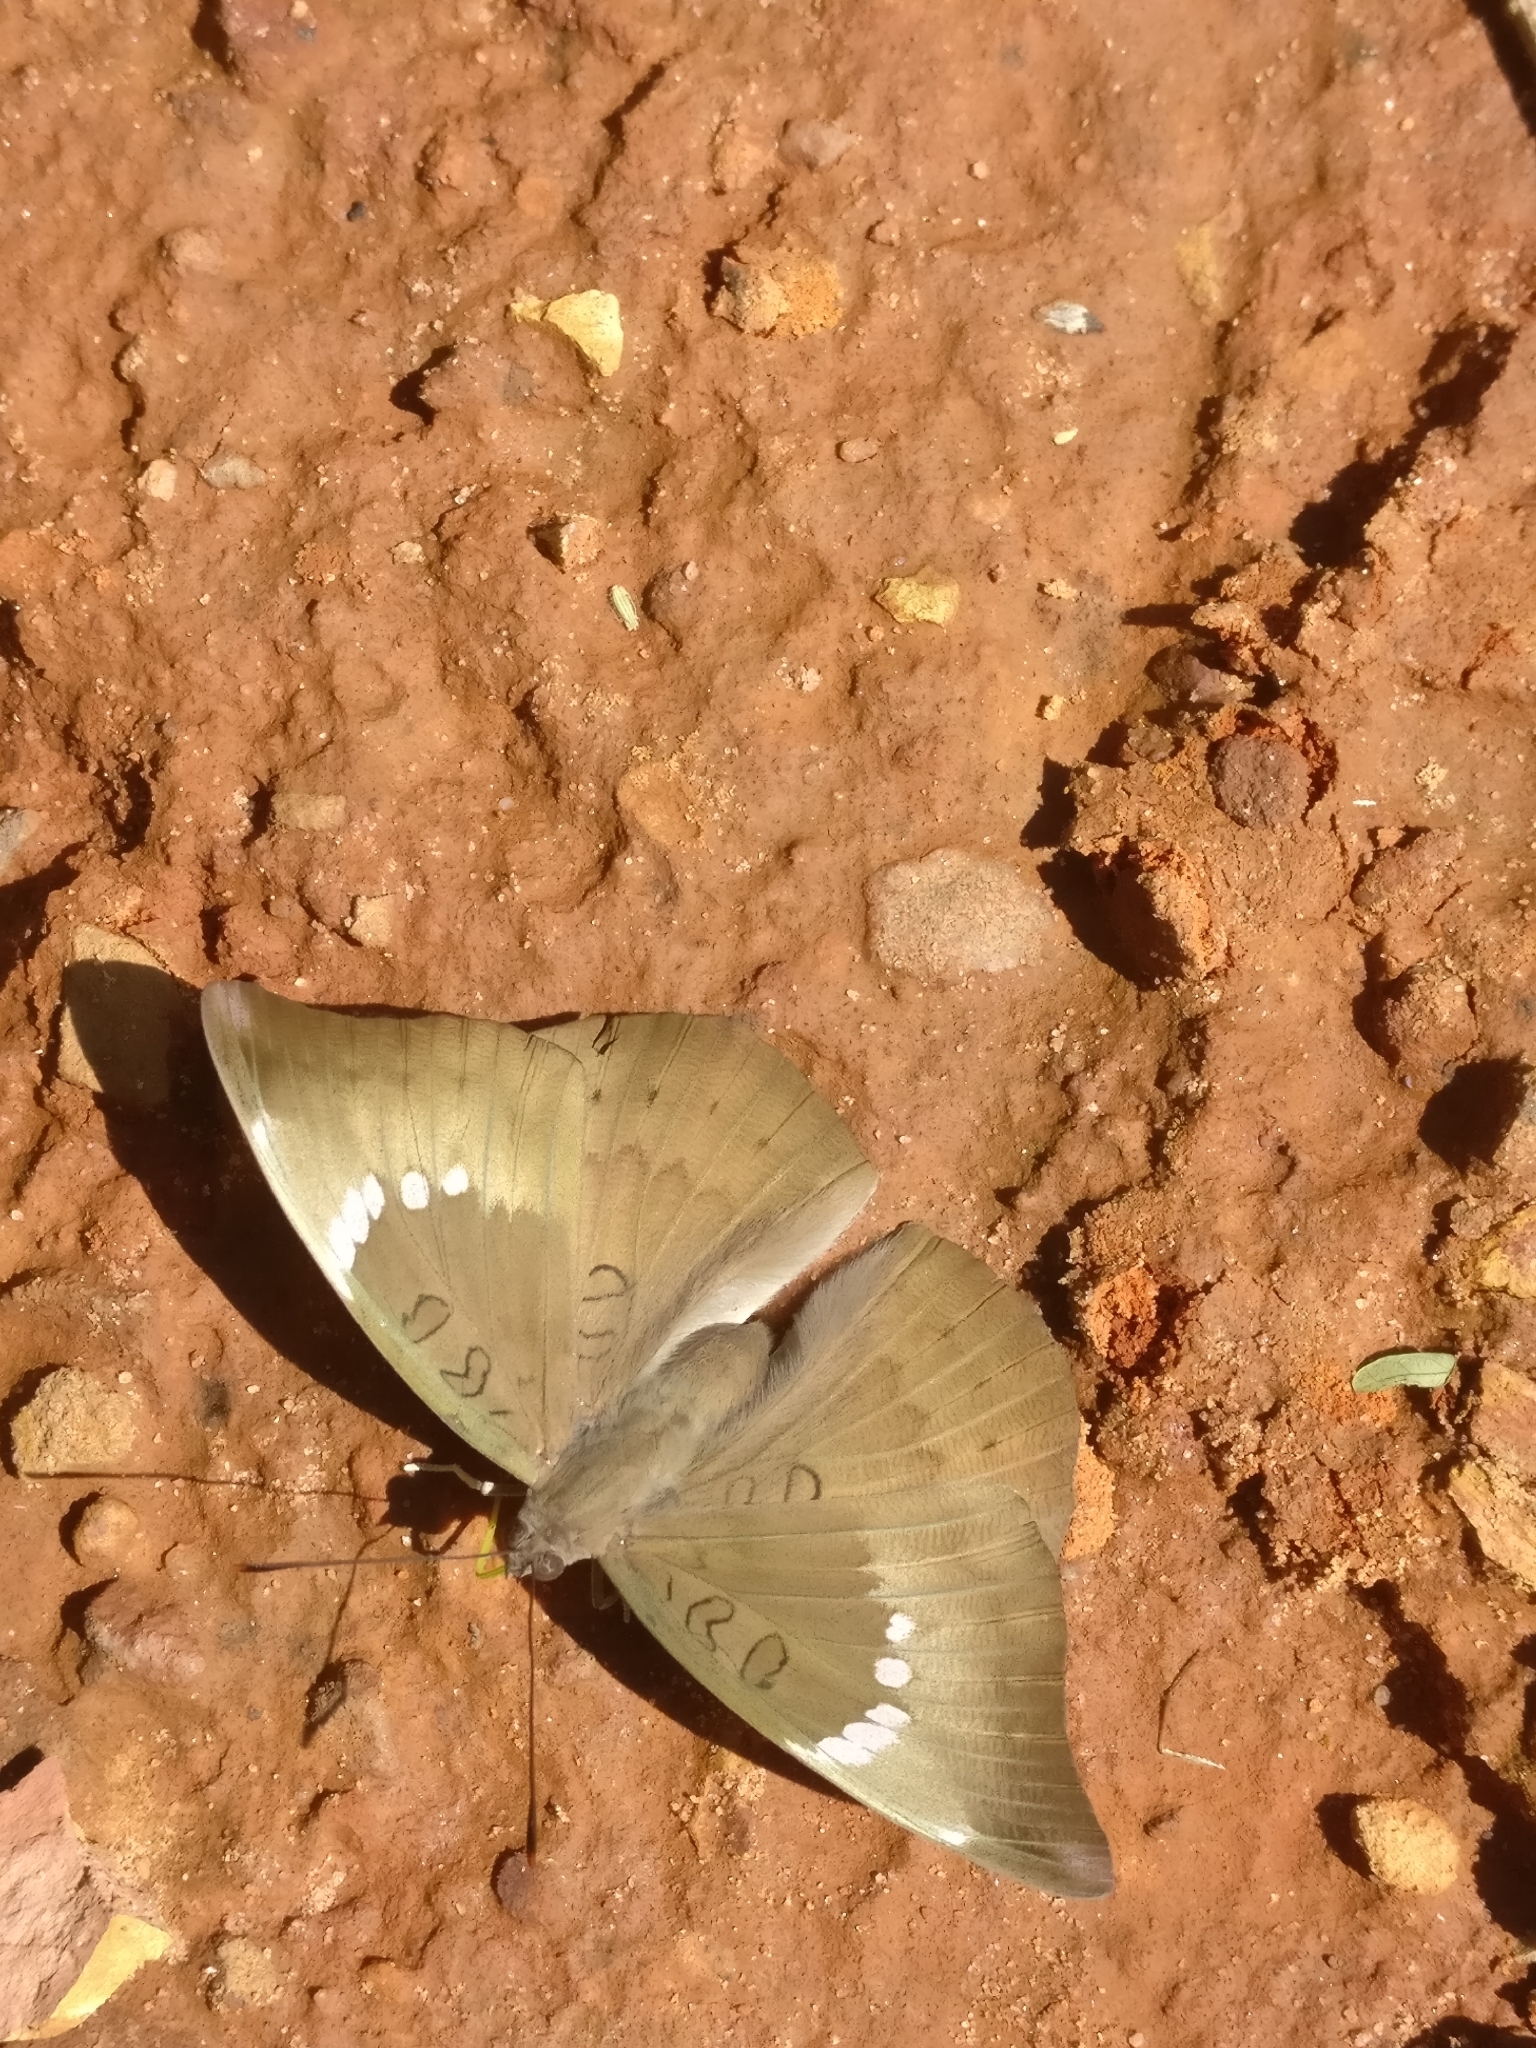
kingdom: Animalia
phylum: Arthropoda
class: Insecta
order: Lepidoptera
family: Nymphalidae
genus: Euthalia
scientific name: Euthalia aconthea
